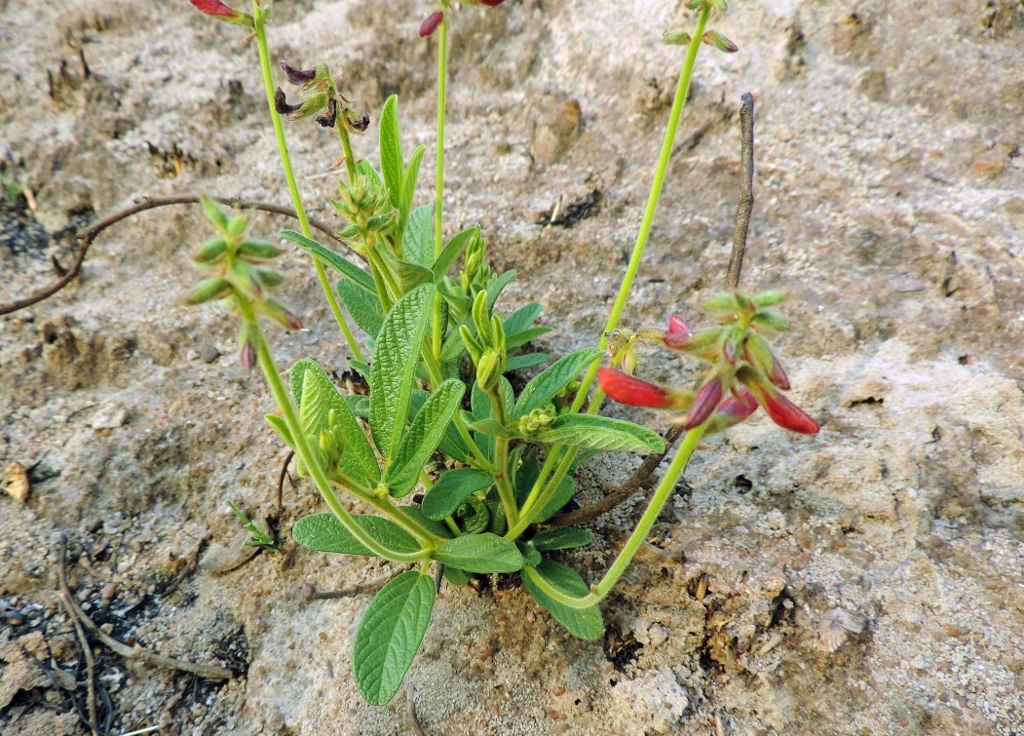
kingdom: Plantae
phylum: Tracheophyta
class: Magnoliopsida
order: Fabales
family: Fabaceae
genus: Eriosema
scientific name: Eriosema pauciflorum
